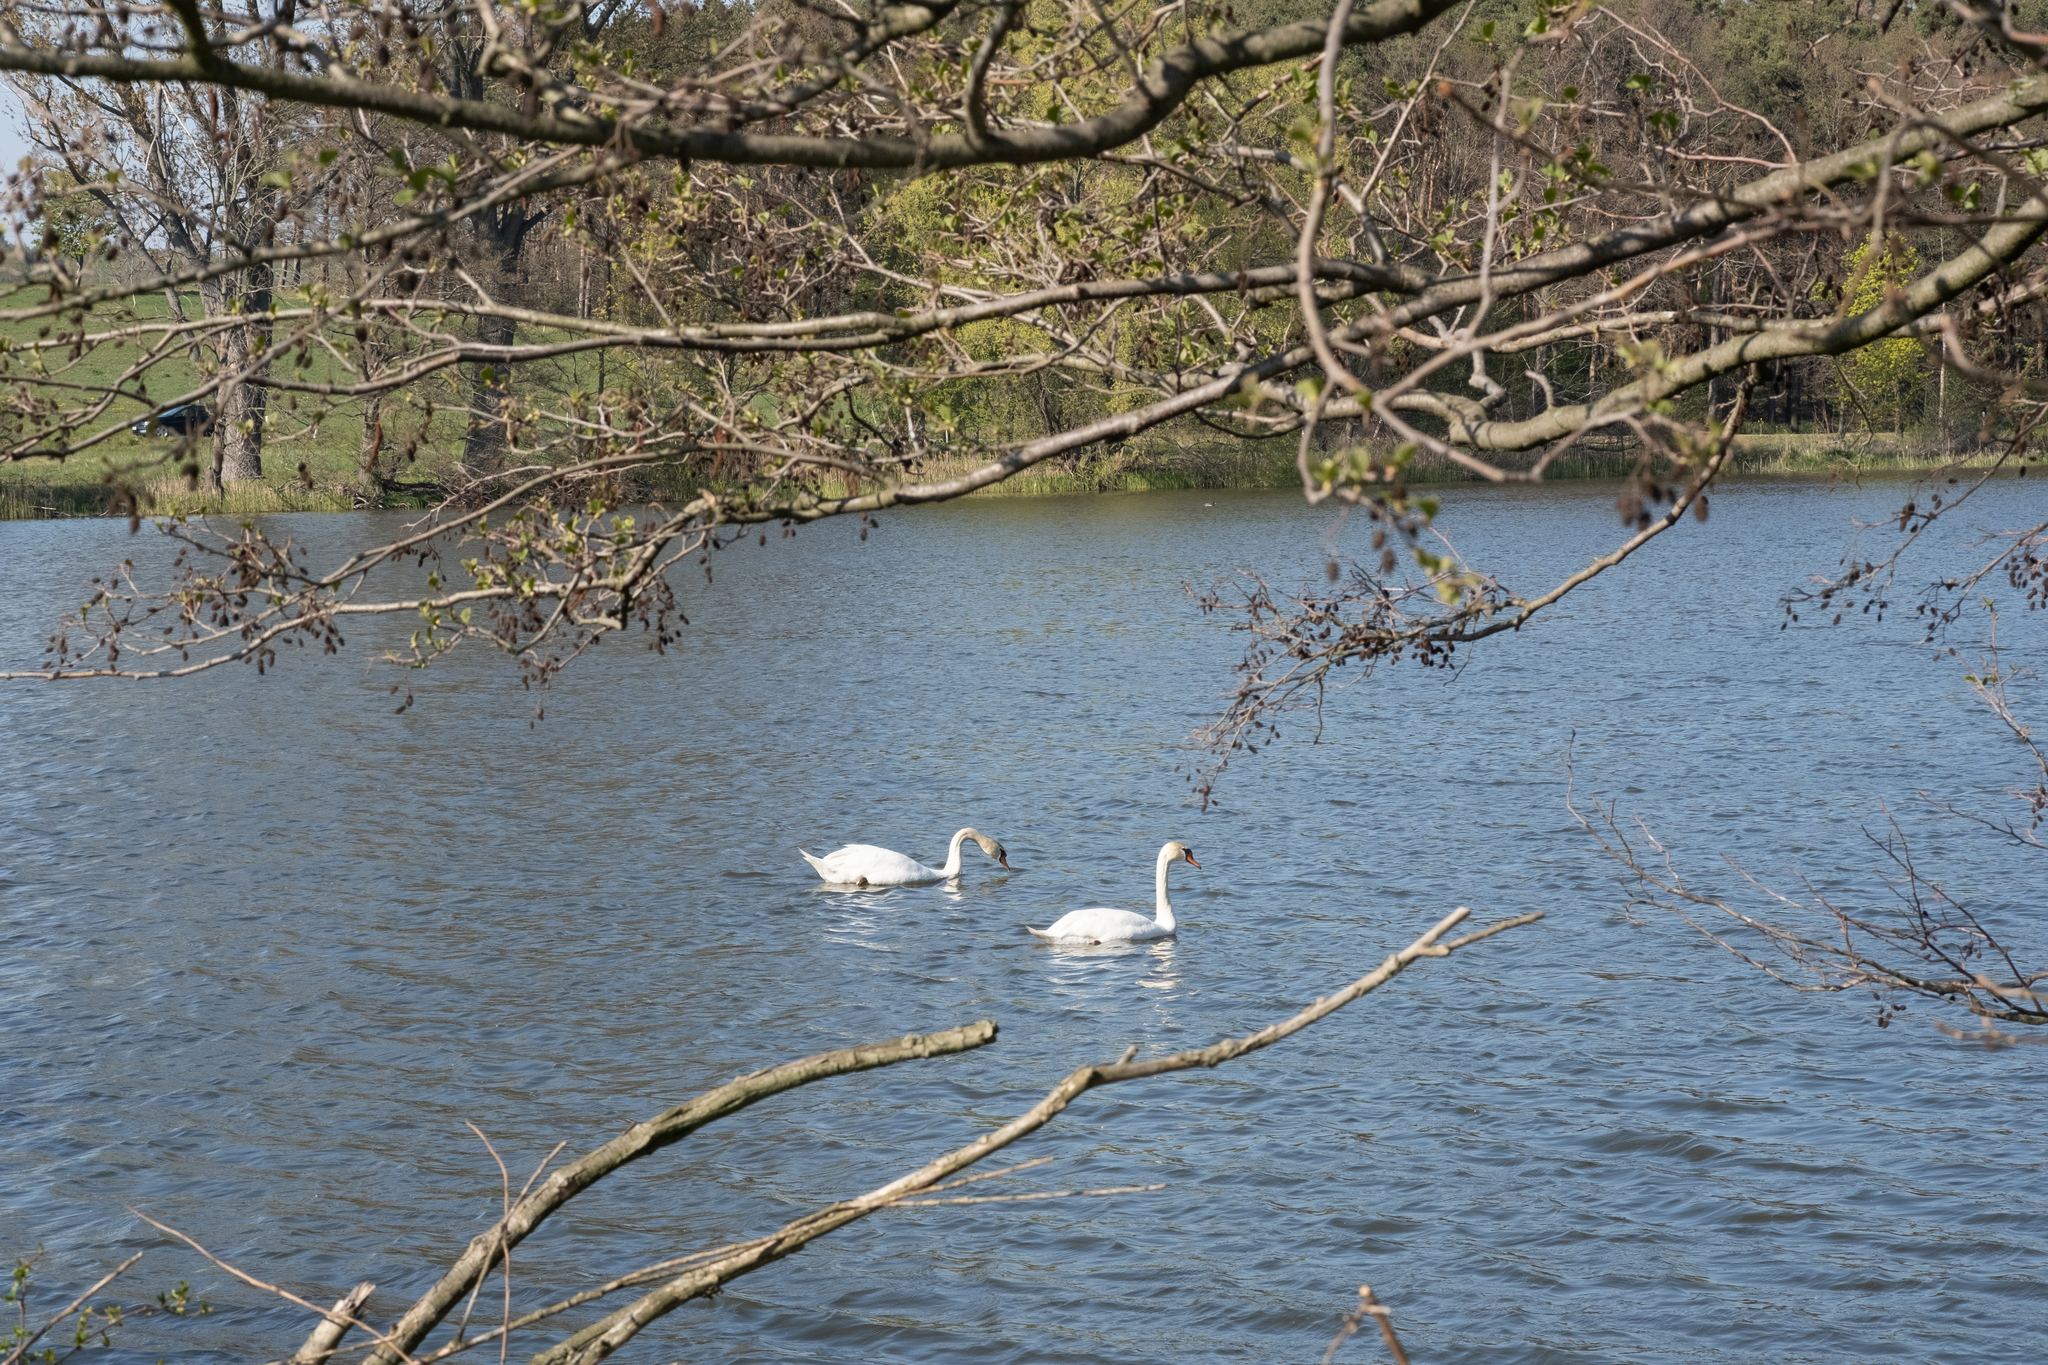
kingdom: Animalia
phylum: Chordata
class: Aves
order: Anseriformes
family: Anatidae
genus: Cygnus
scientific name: Cygnus olor
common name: Mute swan
